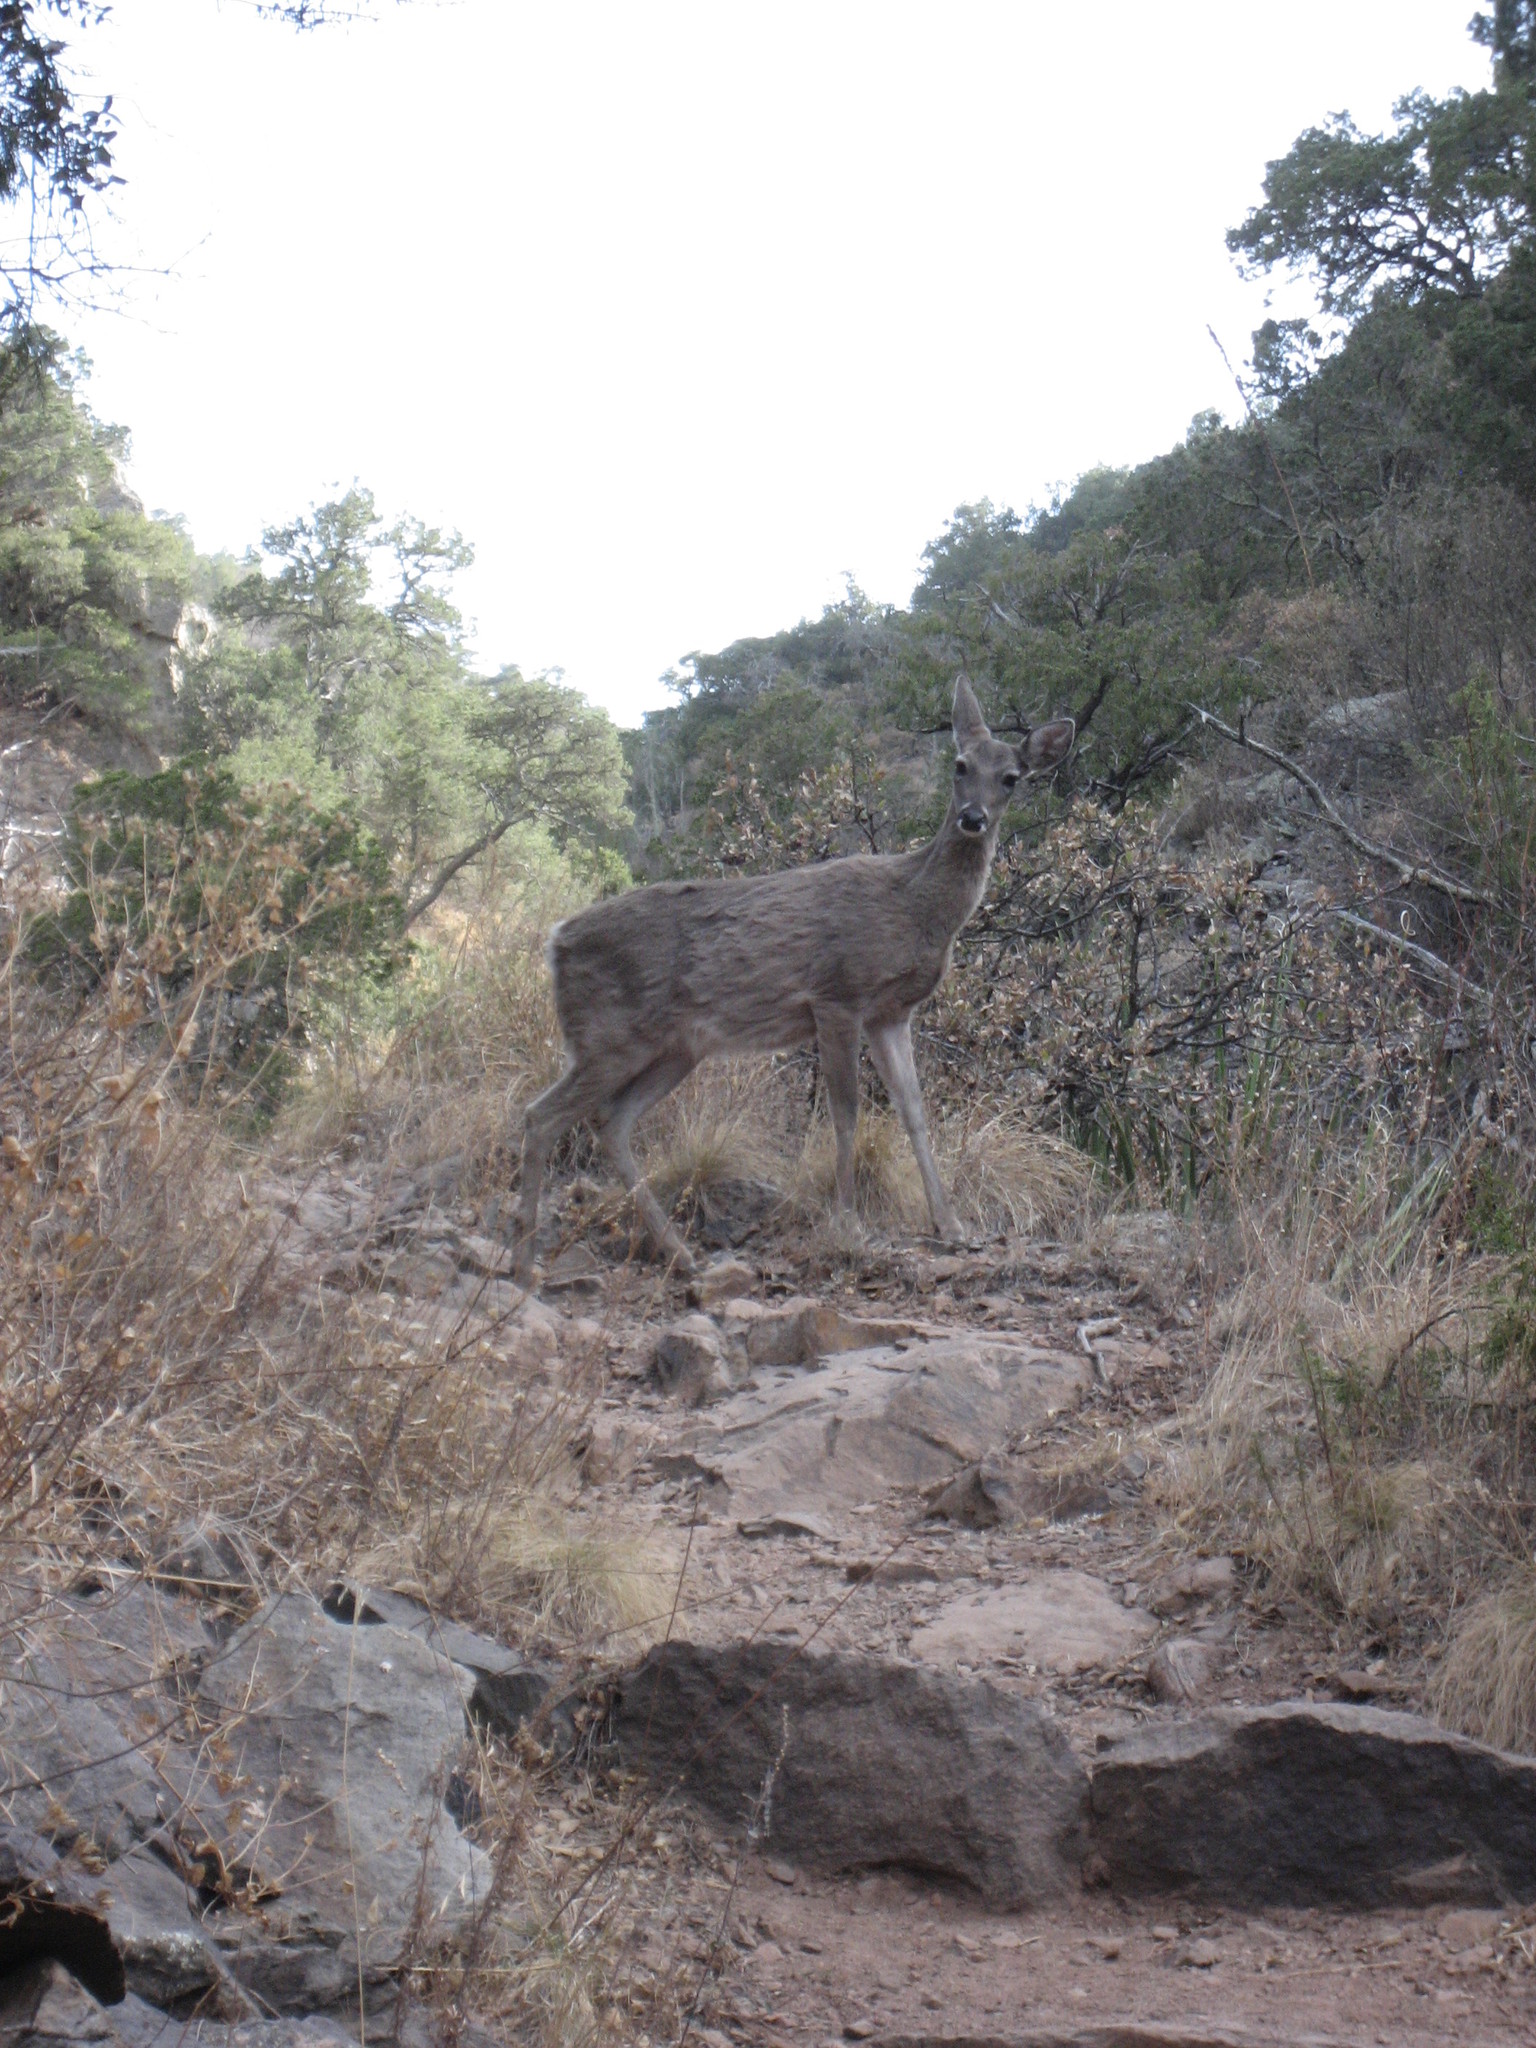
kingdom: Animalia
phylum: Chordata
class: Mammalia
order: Artiodactyla
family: Cervidae
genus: Odocoileus
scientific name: Odocoileus virginianus
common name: White-tailed deer
